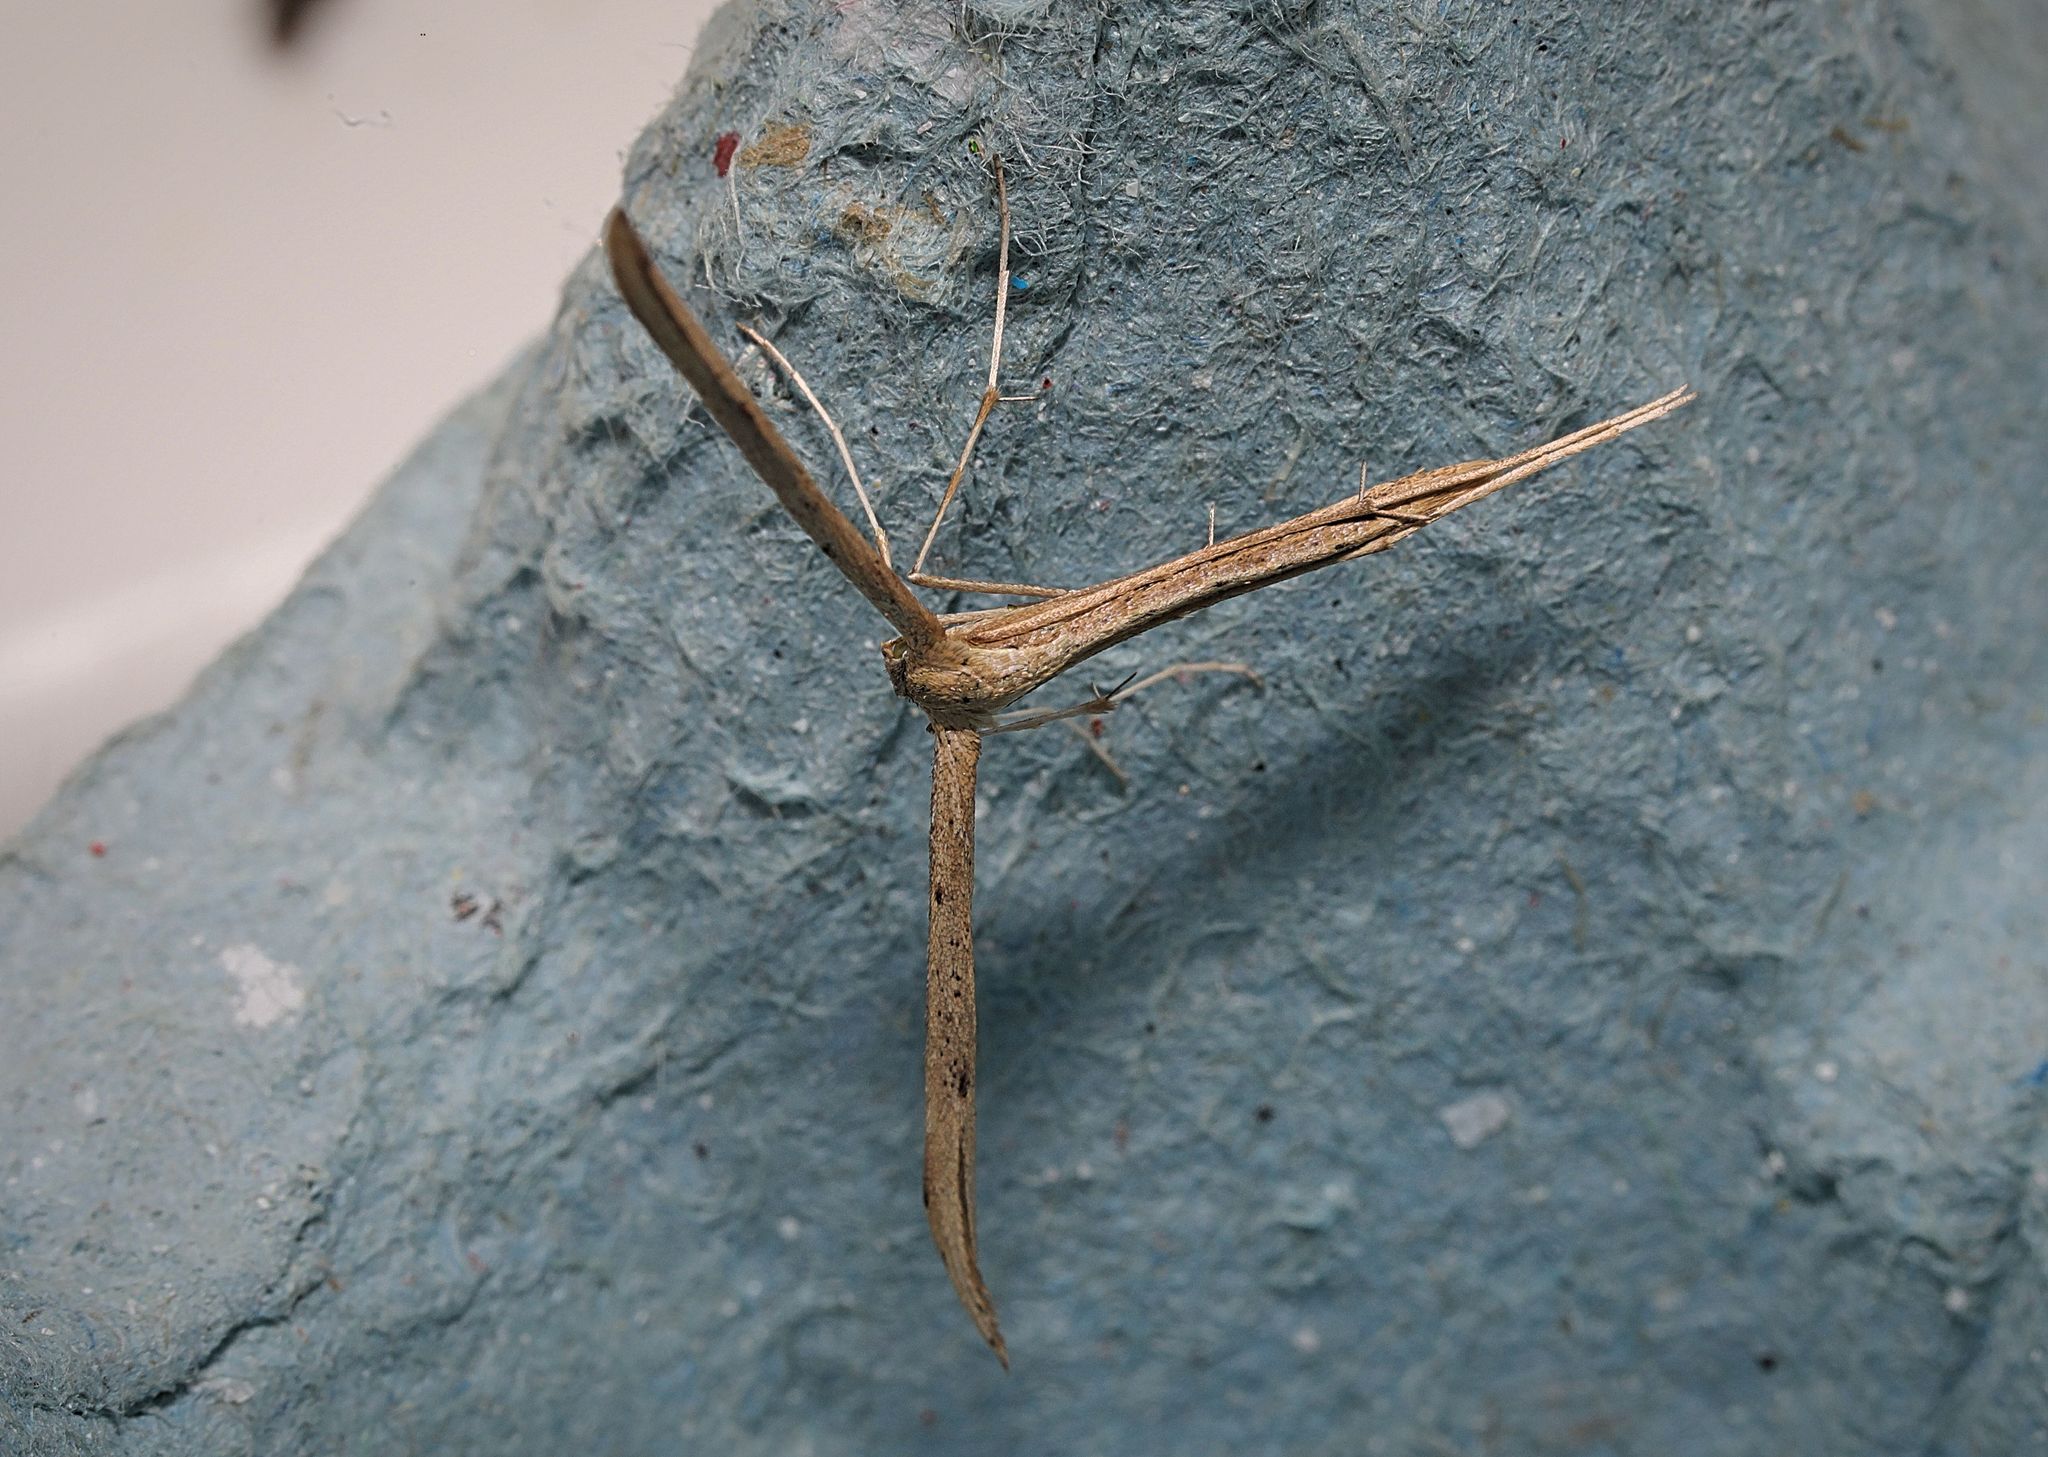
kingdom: Animalia
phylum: Arthropoda
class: Insecta
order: Lepidoptera
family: Pterophoridae
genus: Emmelina
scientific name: Emmelina monodactyla
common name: Common plume
